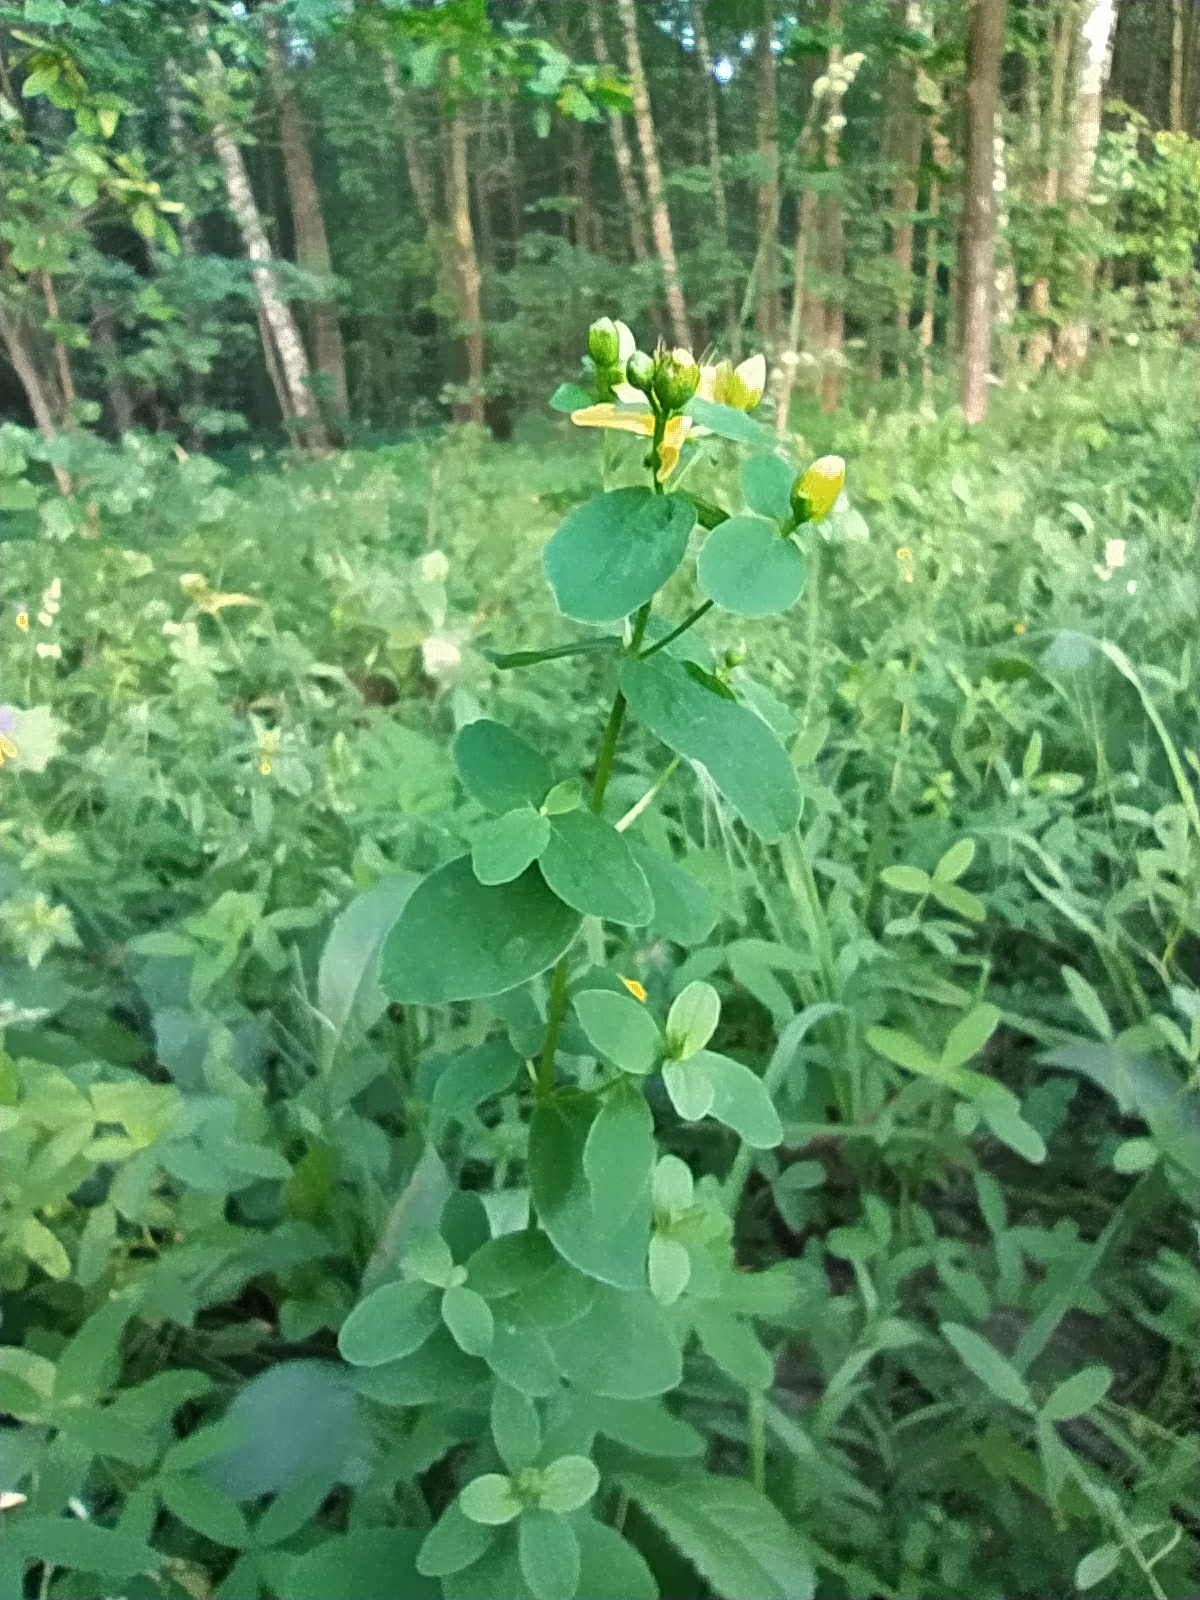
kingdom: Plantae
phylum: Tracheophyta
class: Magnoliopsida
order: Malpighiales
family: Hypericaceae
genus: Hypericum
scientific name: Hypericum maculatum
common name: Imperforate st. john's-wort
